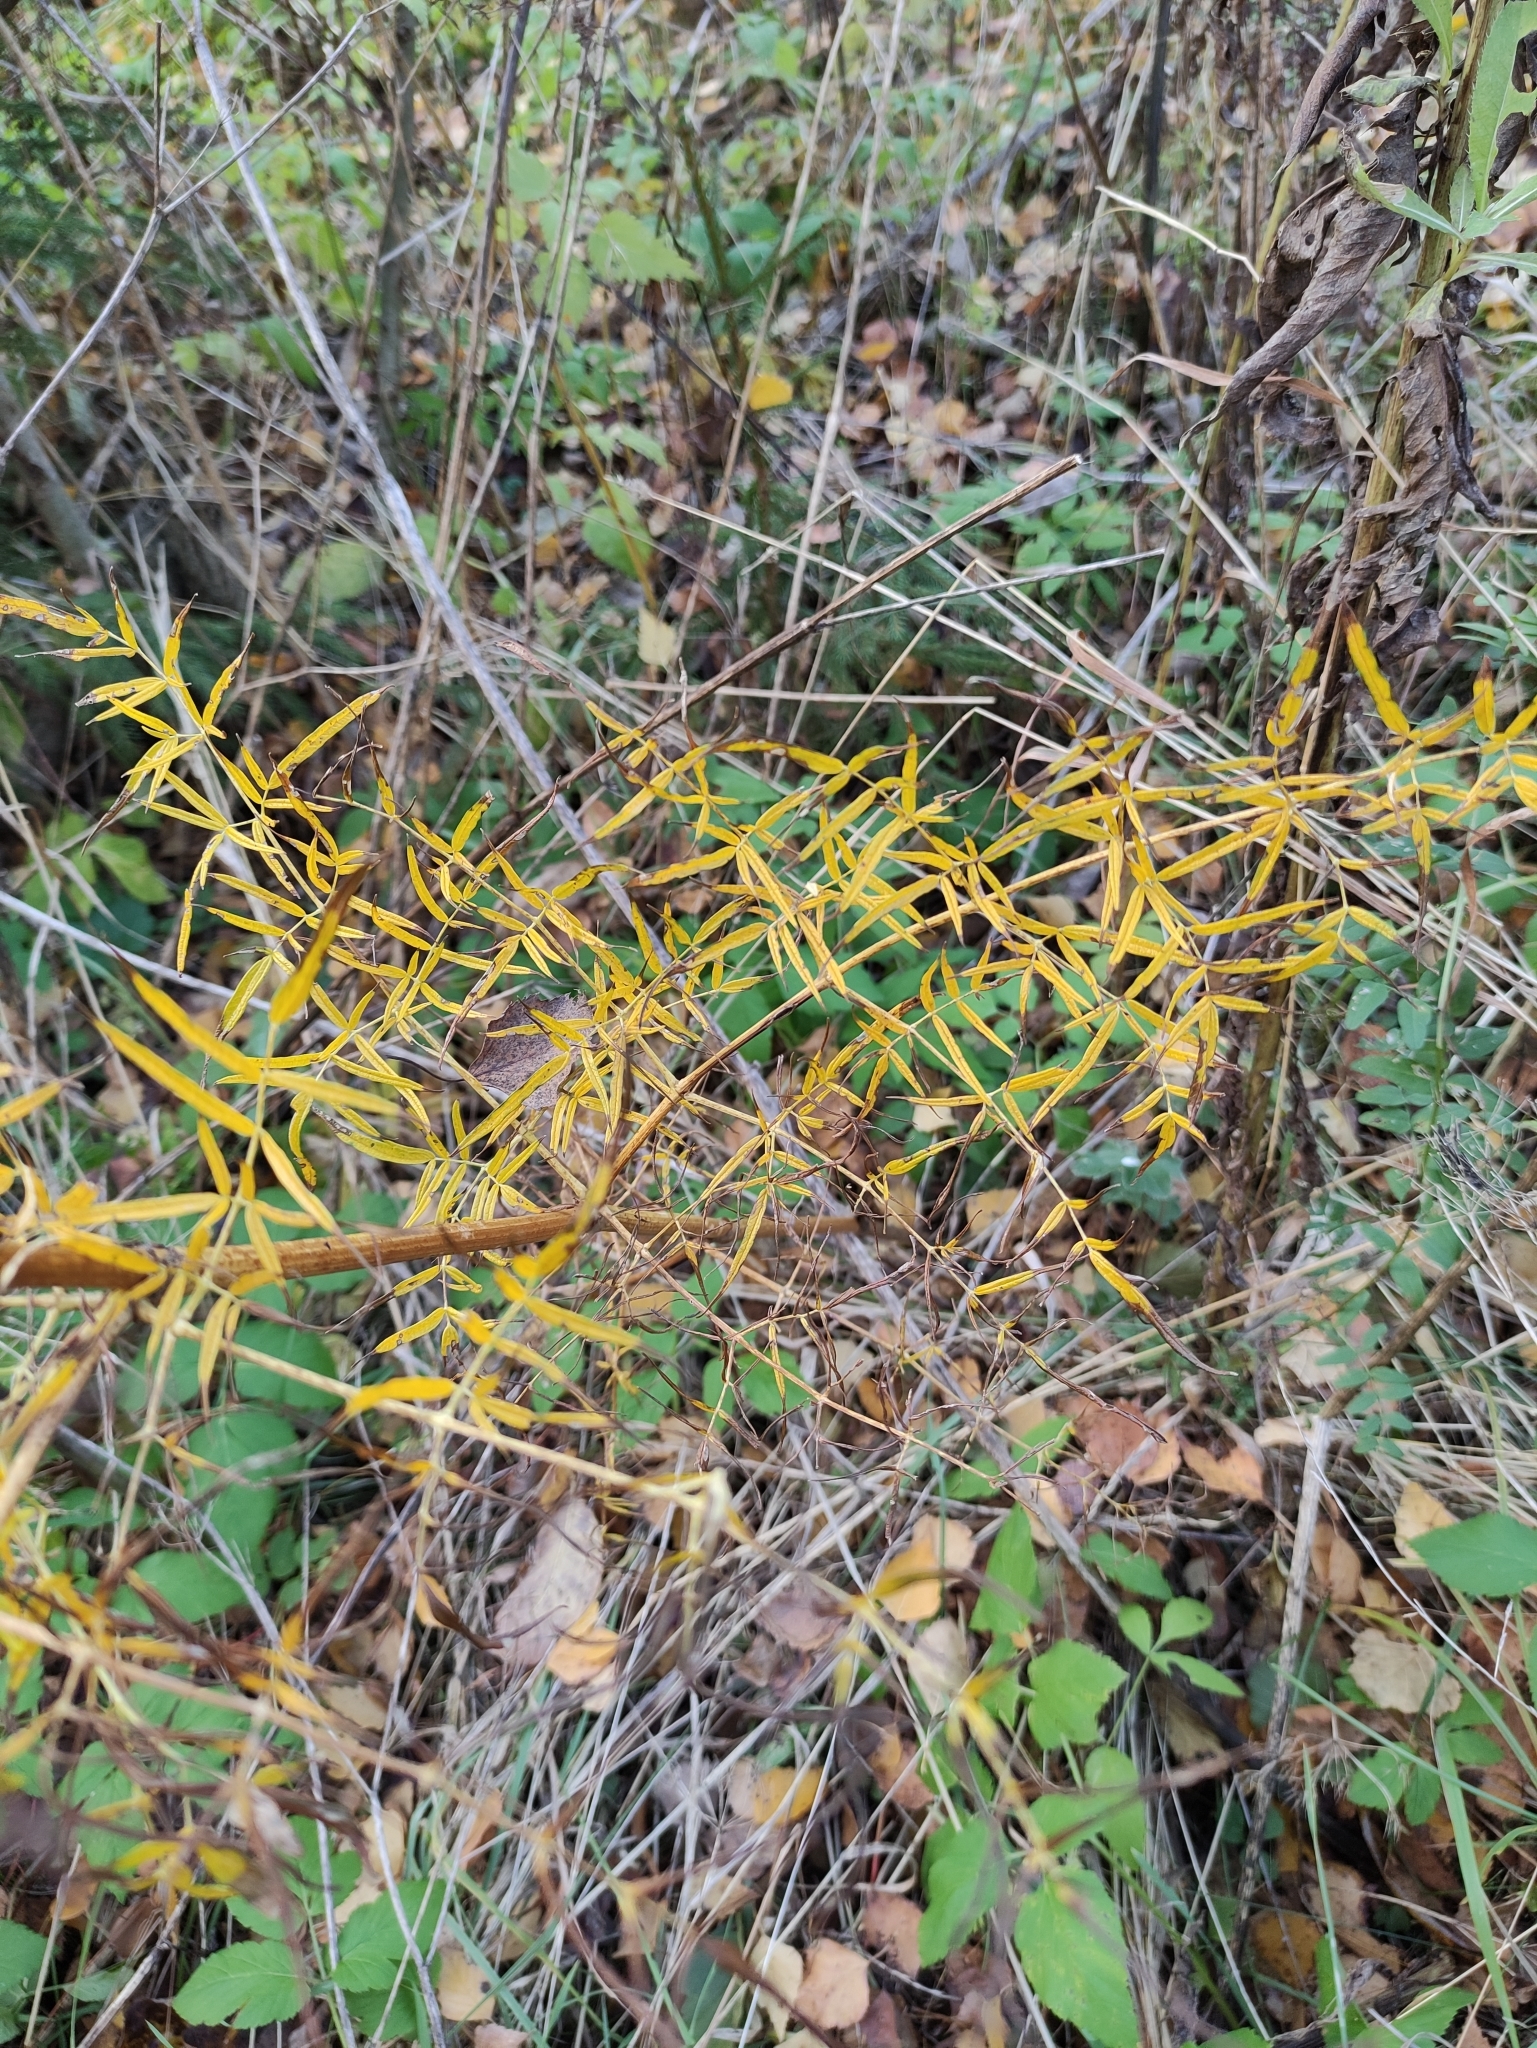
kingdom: Plantae
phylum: Tracheophyta
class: Magnoliopsida
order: Apiales
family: Apiaceae
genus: Cicuta
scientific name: Cicuta virosa
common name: Cowbane
